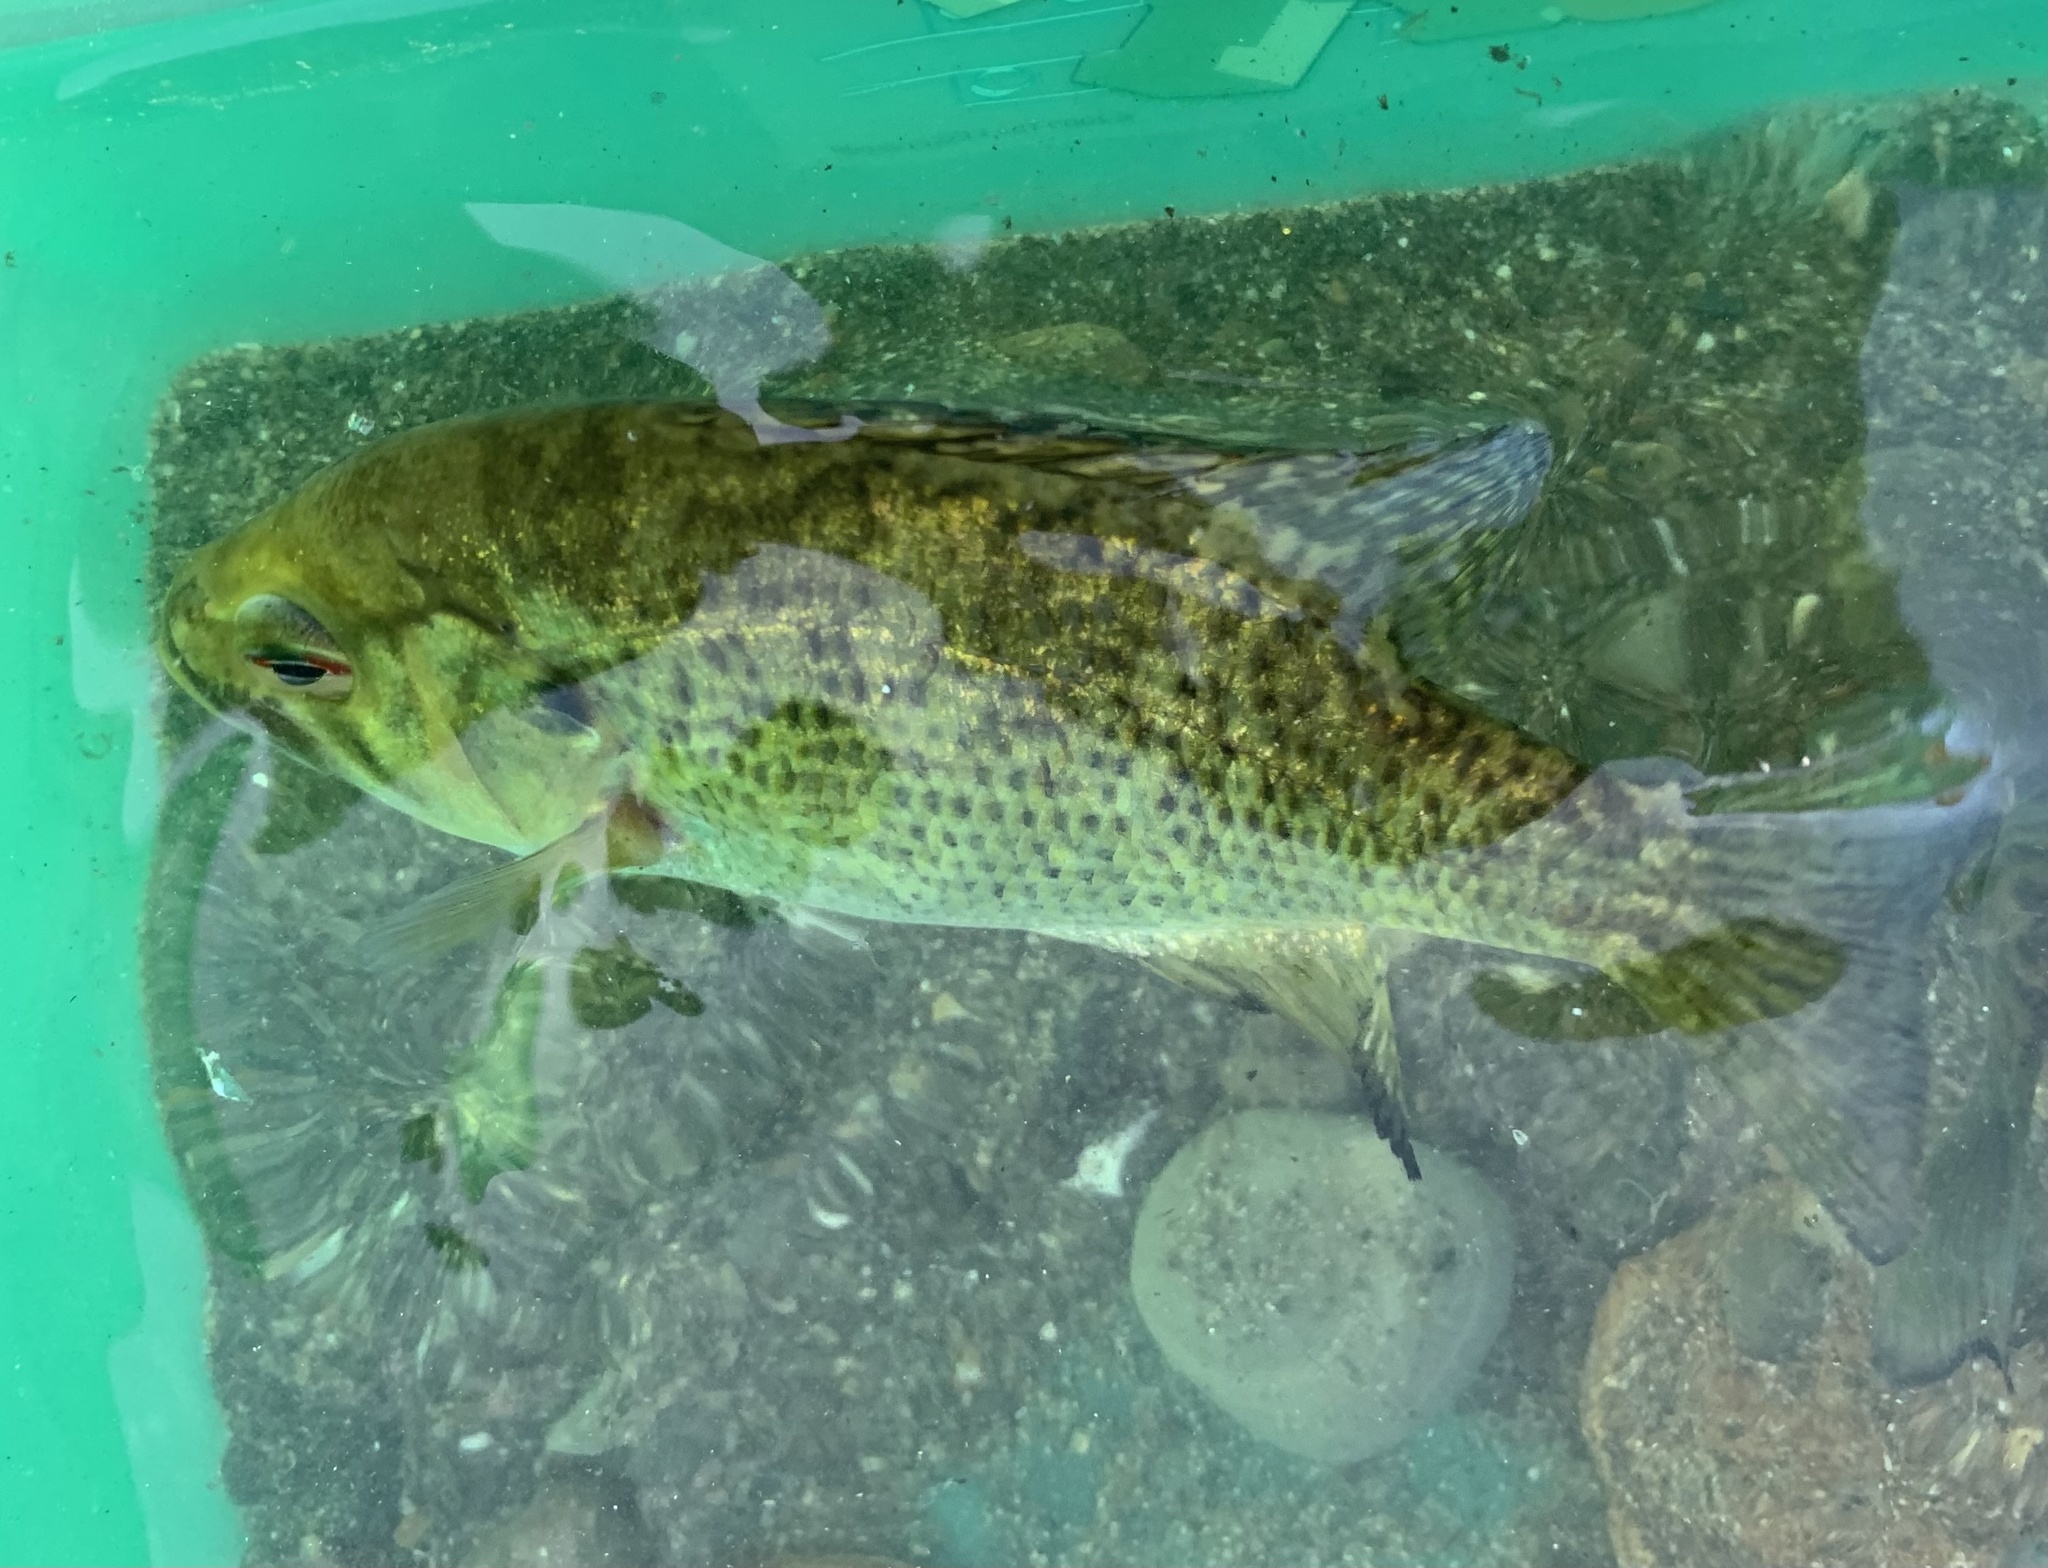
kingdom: Animalia
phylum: Chordata
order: Perciformes
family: Centrarchidae
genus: Ambloplites
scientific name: Ambloplites rupestris
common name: Rock bass
